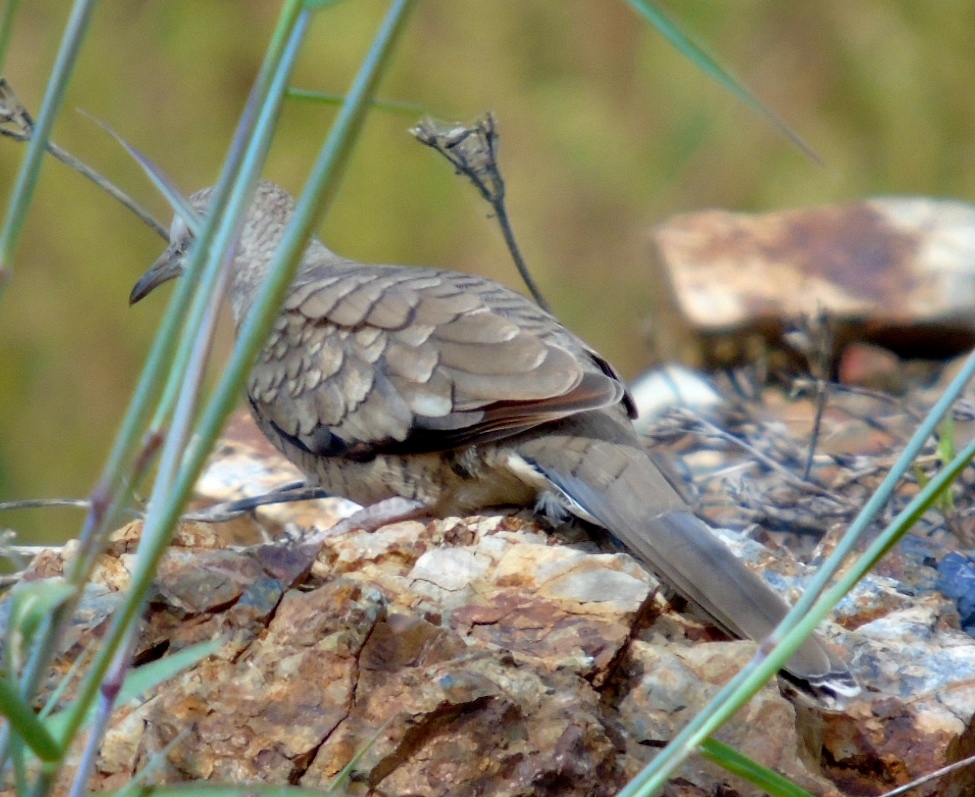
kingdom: Animalia
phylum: Chordata
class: Aves
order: Columbiformes
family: Columbidae
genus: Columbina
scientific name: Columbina inca
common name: Inca dove
